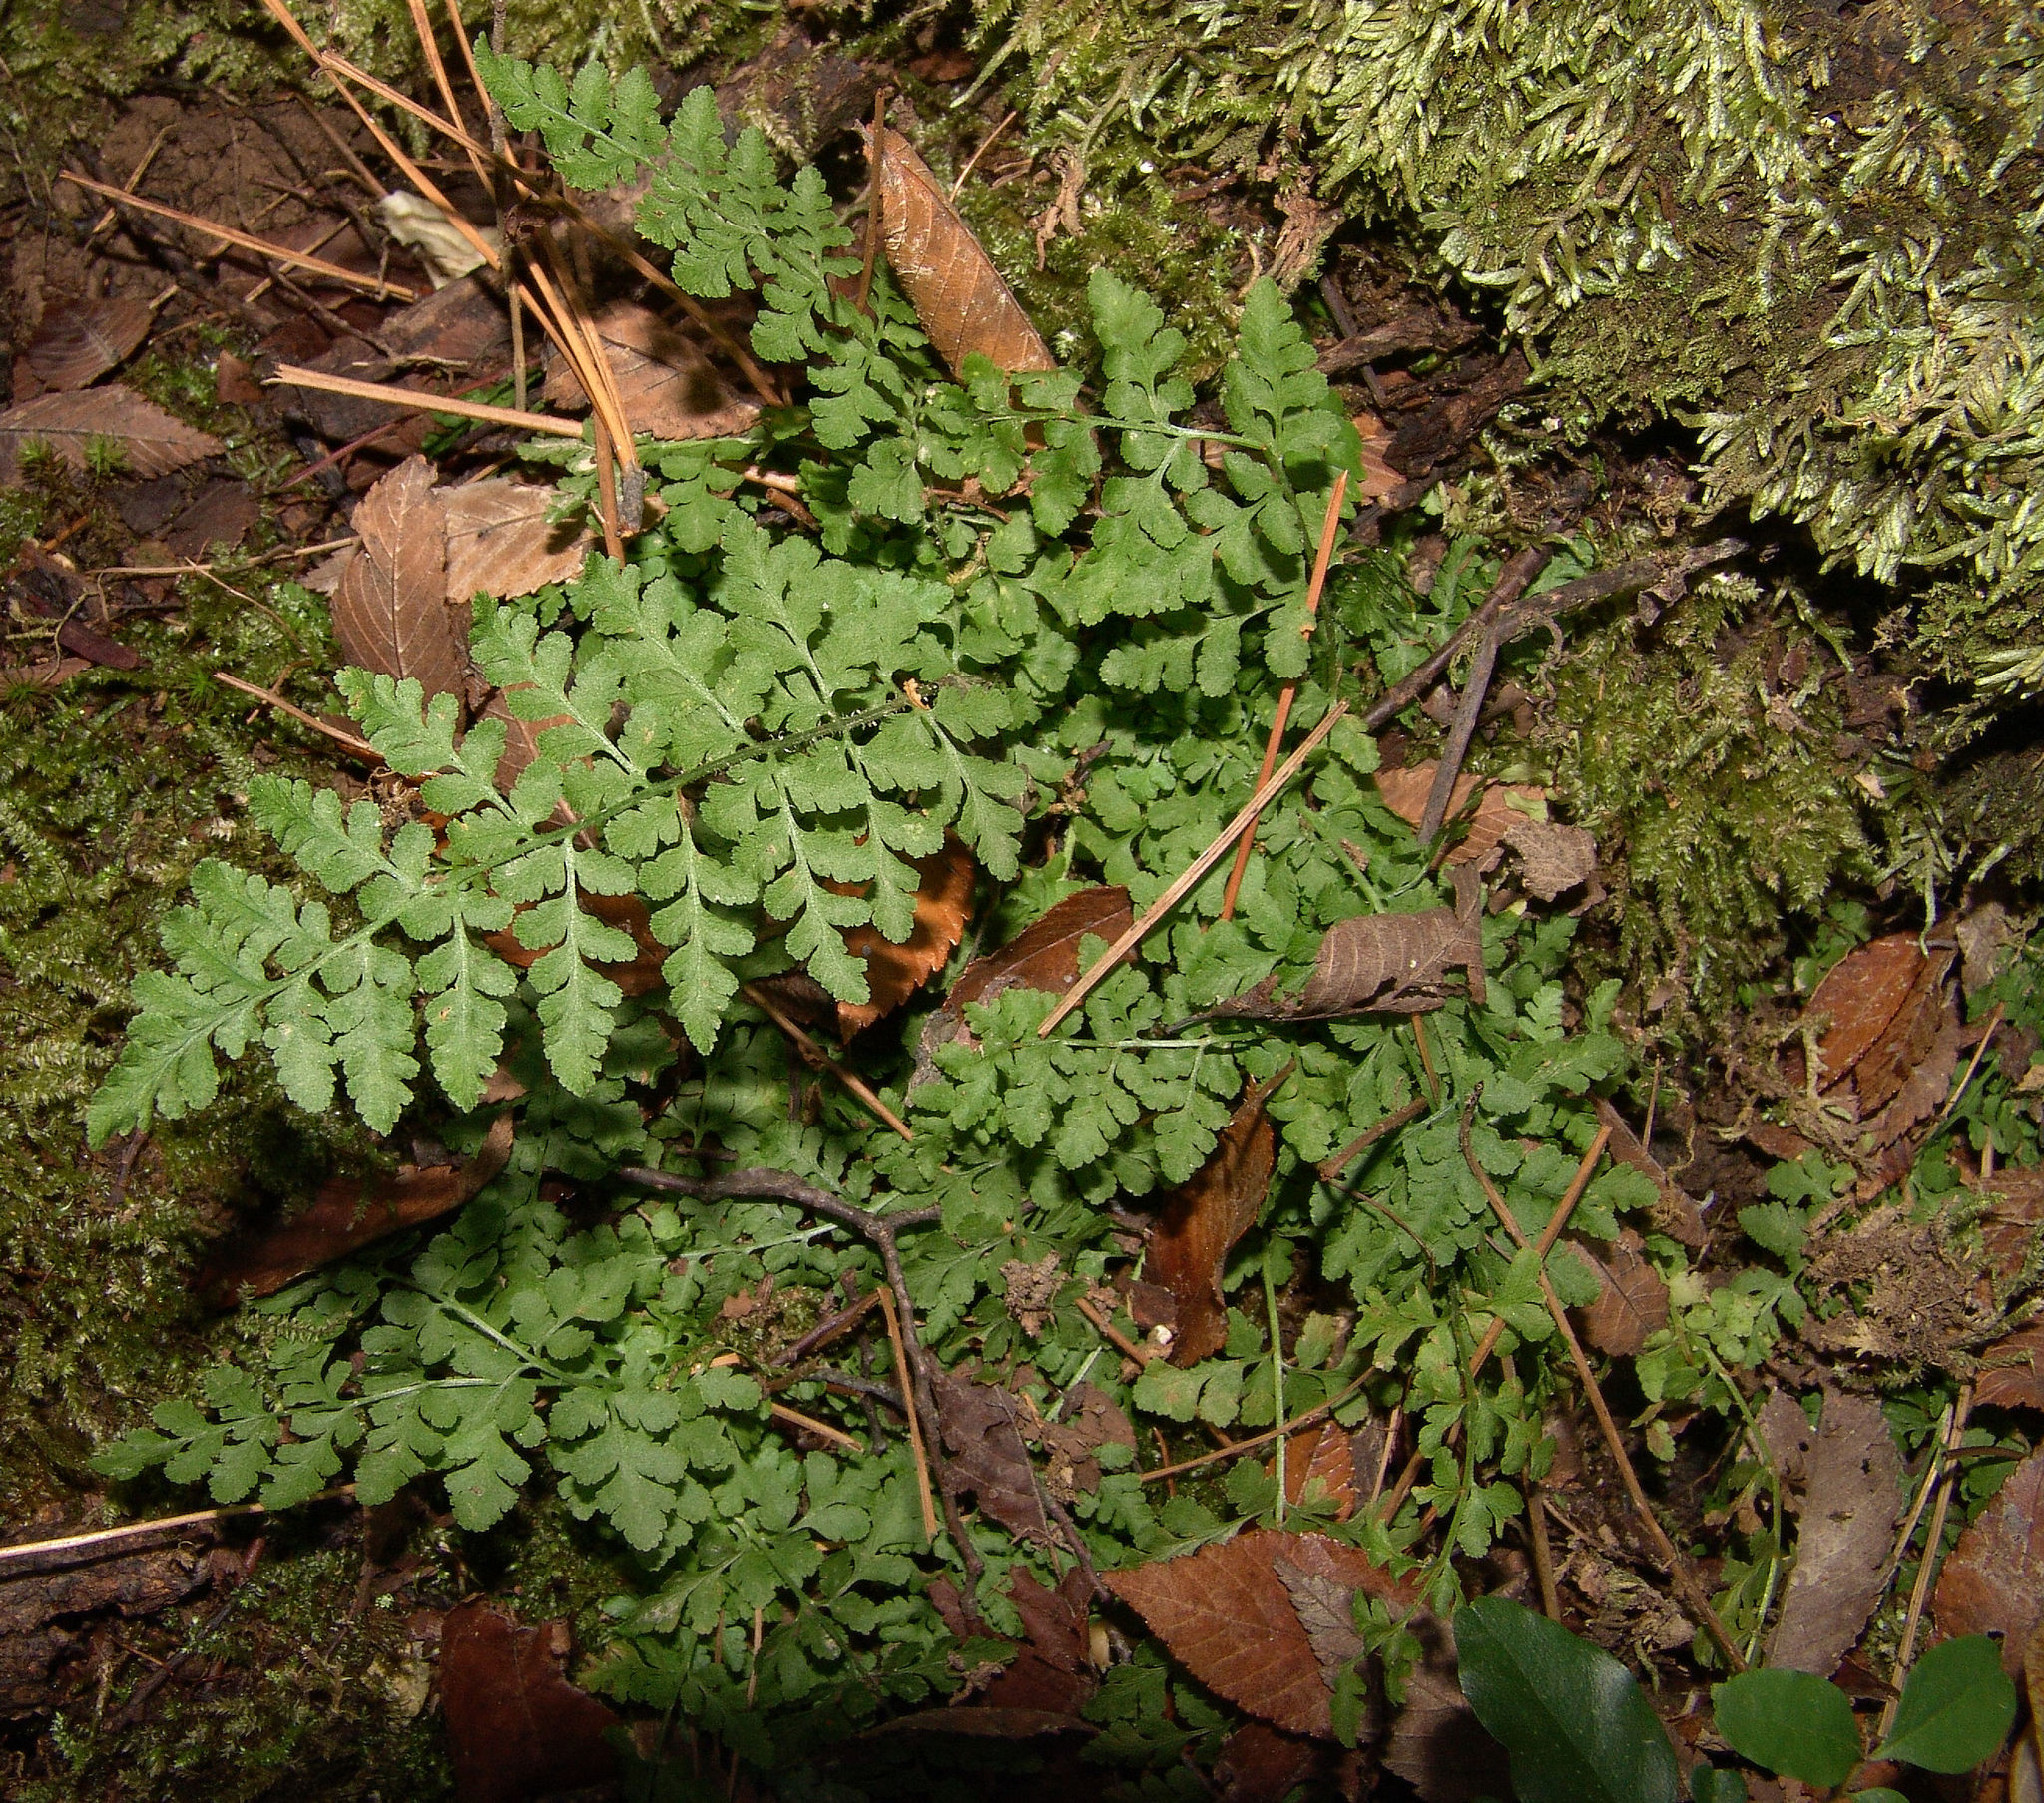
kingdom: Plantae
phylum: Tracheophyta
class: Polypodiopsida
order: Polypodiales
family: Woodsiaceae
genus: Physematium
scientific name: Physematium obtusum
